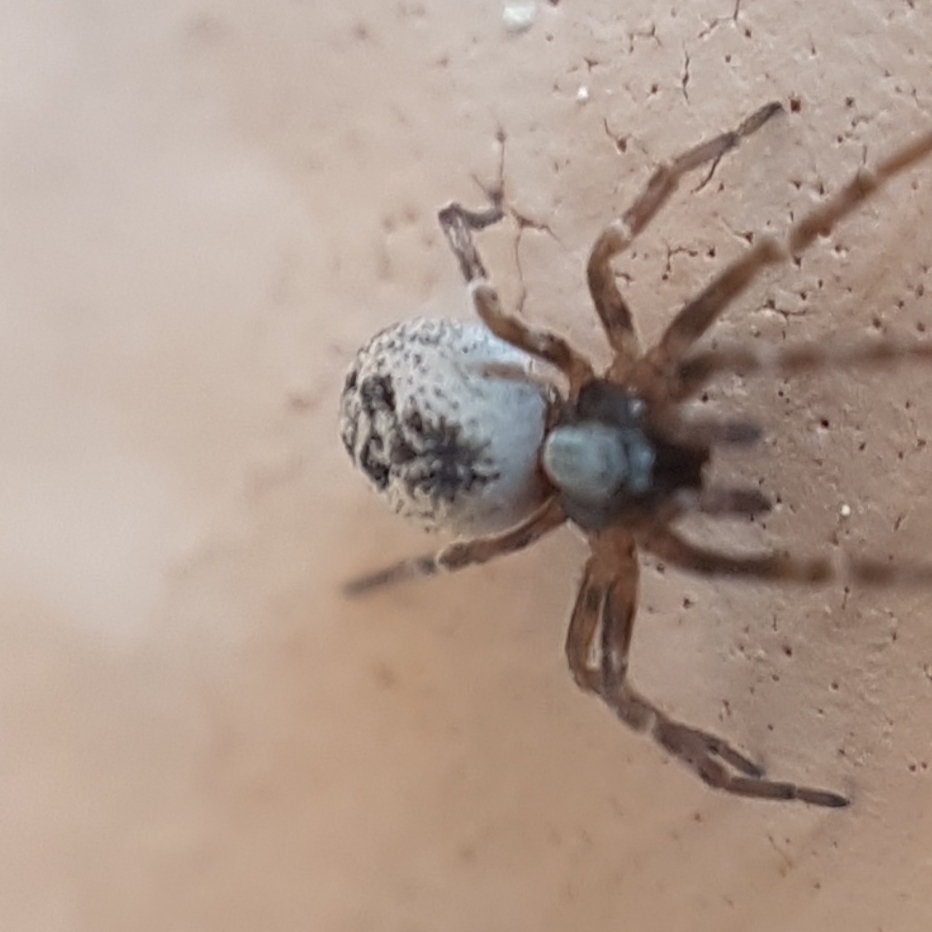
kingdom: Animalia
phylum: Arthropoda
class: Arachnida
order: Araneae
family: Dictynidae
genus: Brigittea
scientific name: Brigittea civica
